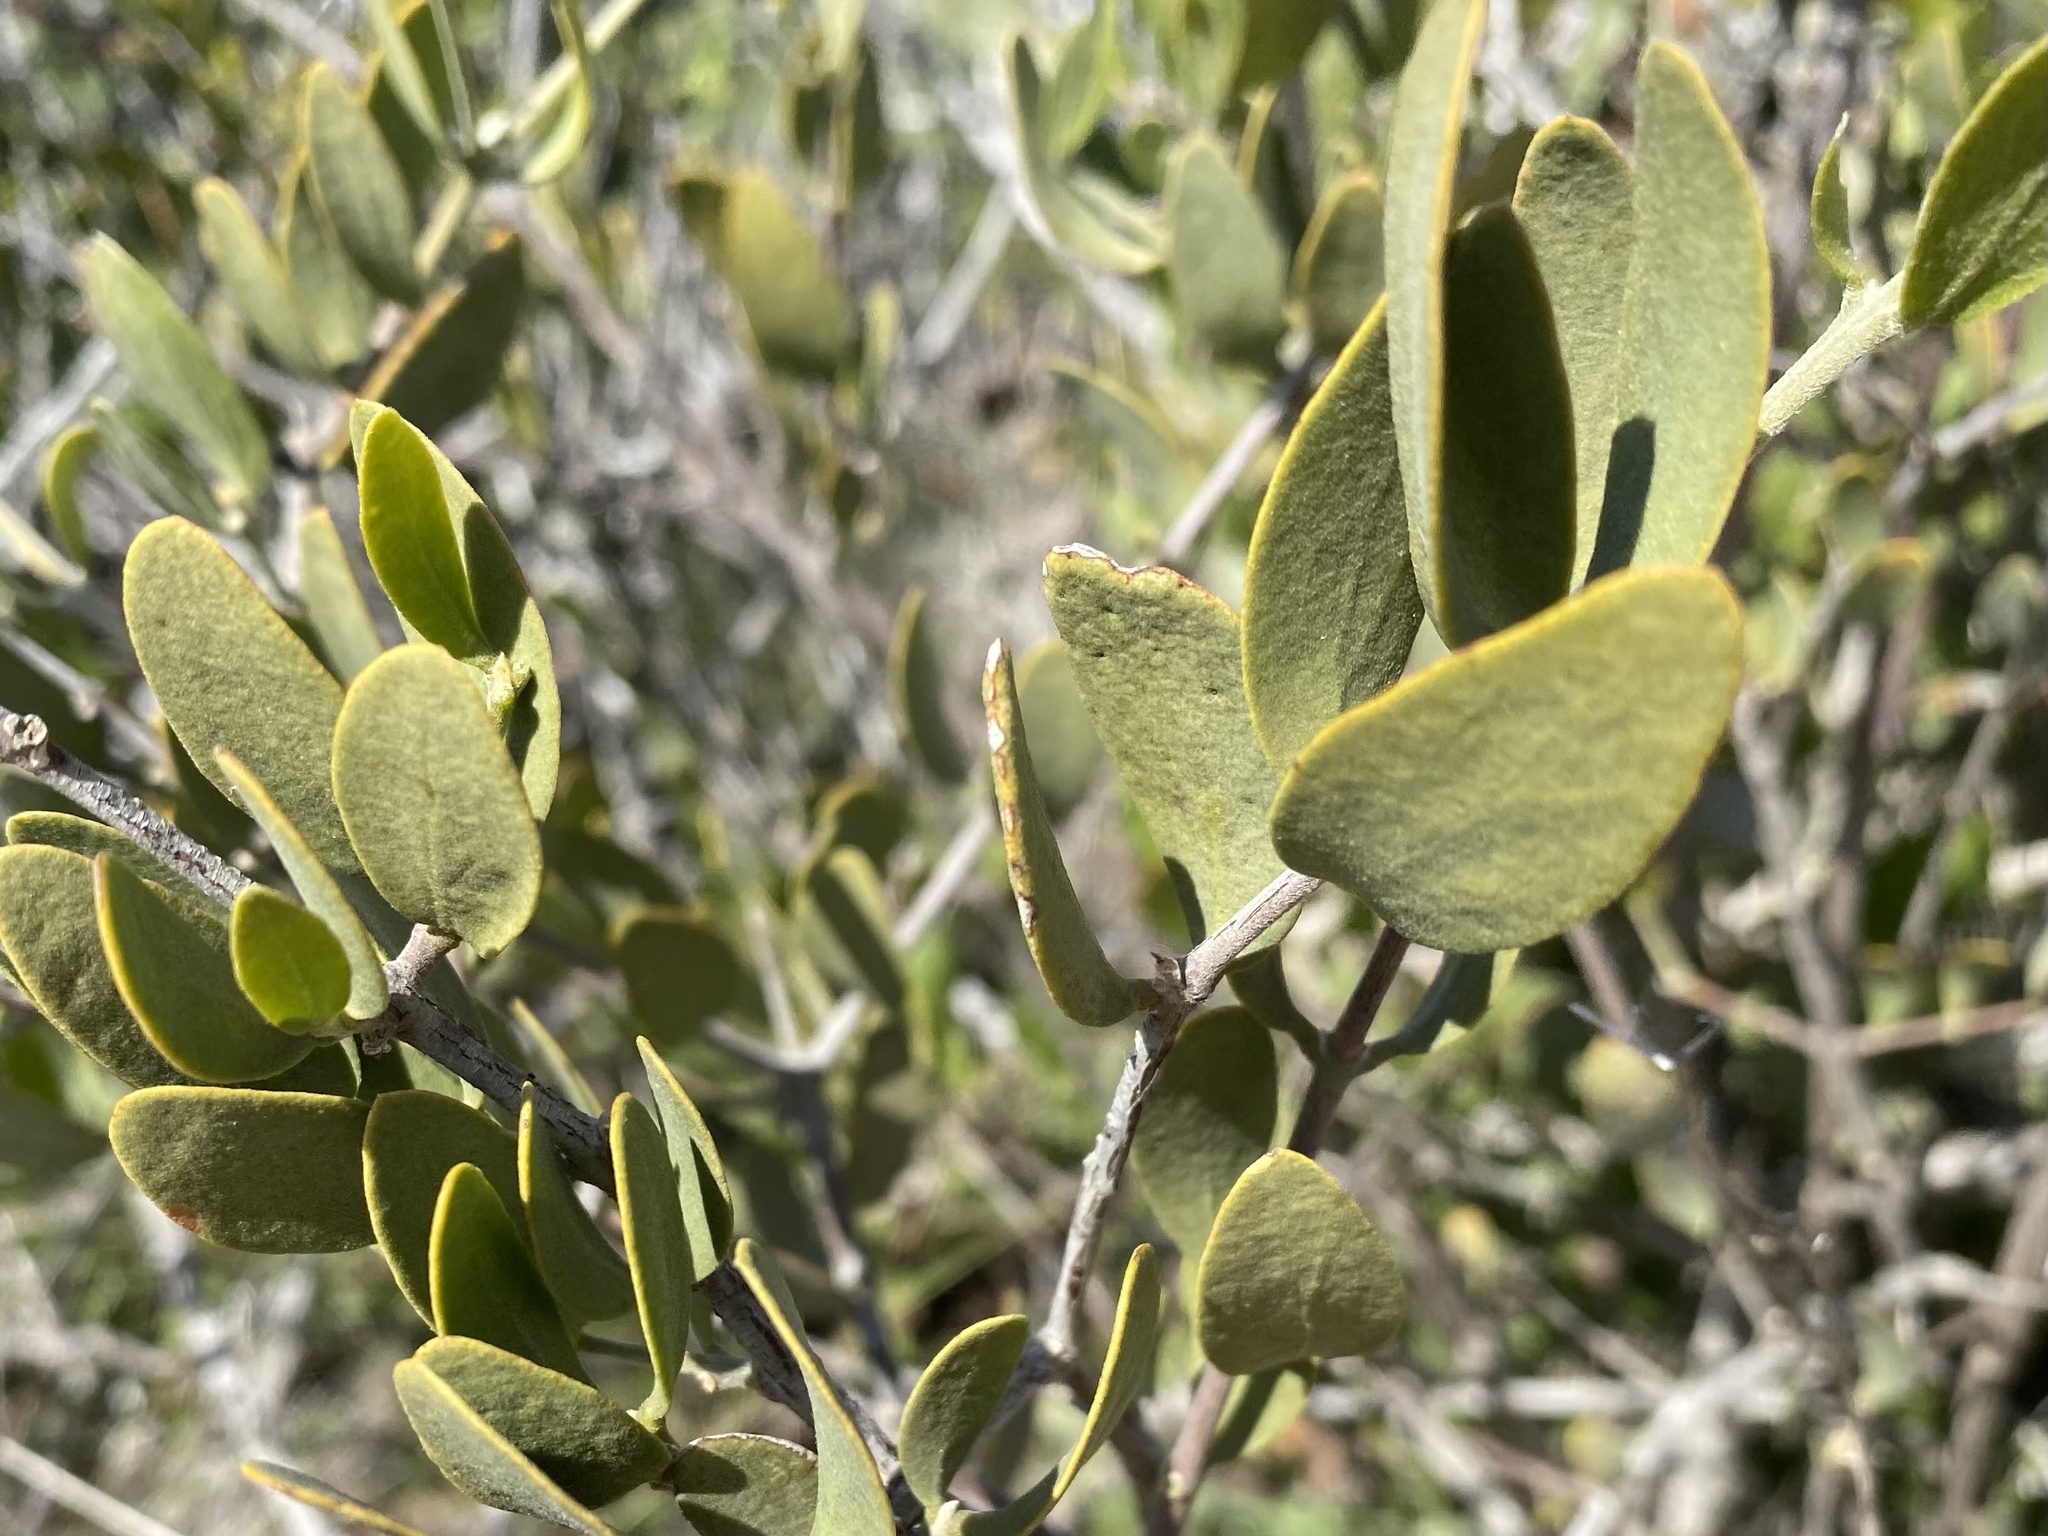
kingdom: Plantae
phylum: Tracheophyta
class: Magnoliopsida
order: Caryophyllales
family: Simmondsiaceae
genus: Simmondsia
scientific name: Simmondsia chinensis
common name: Jojoba
